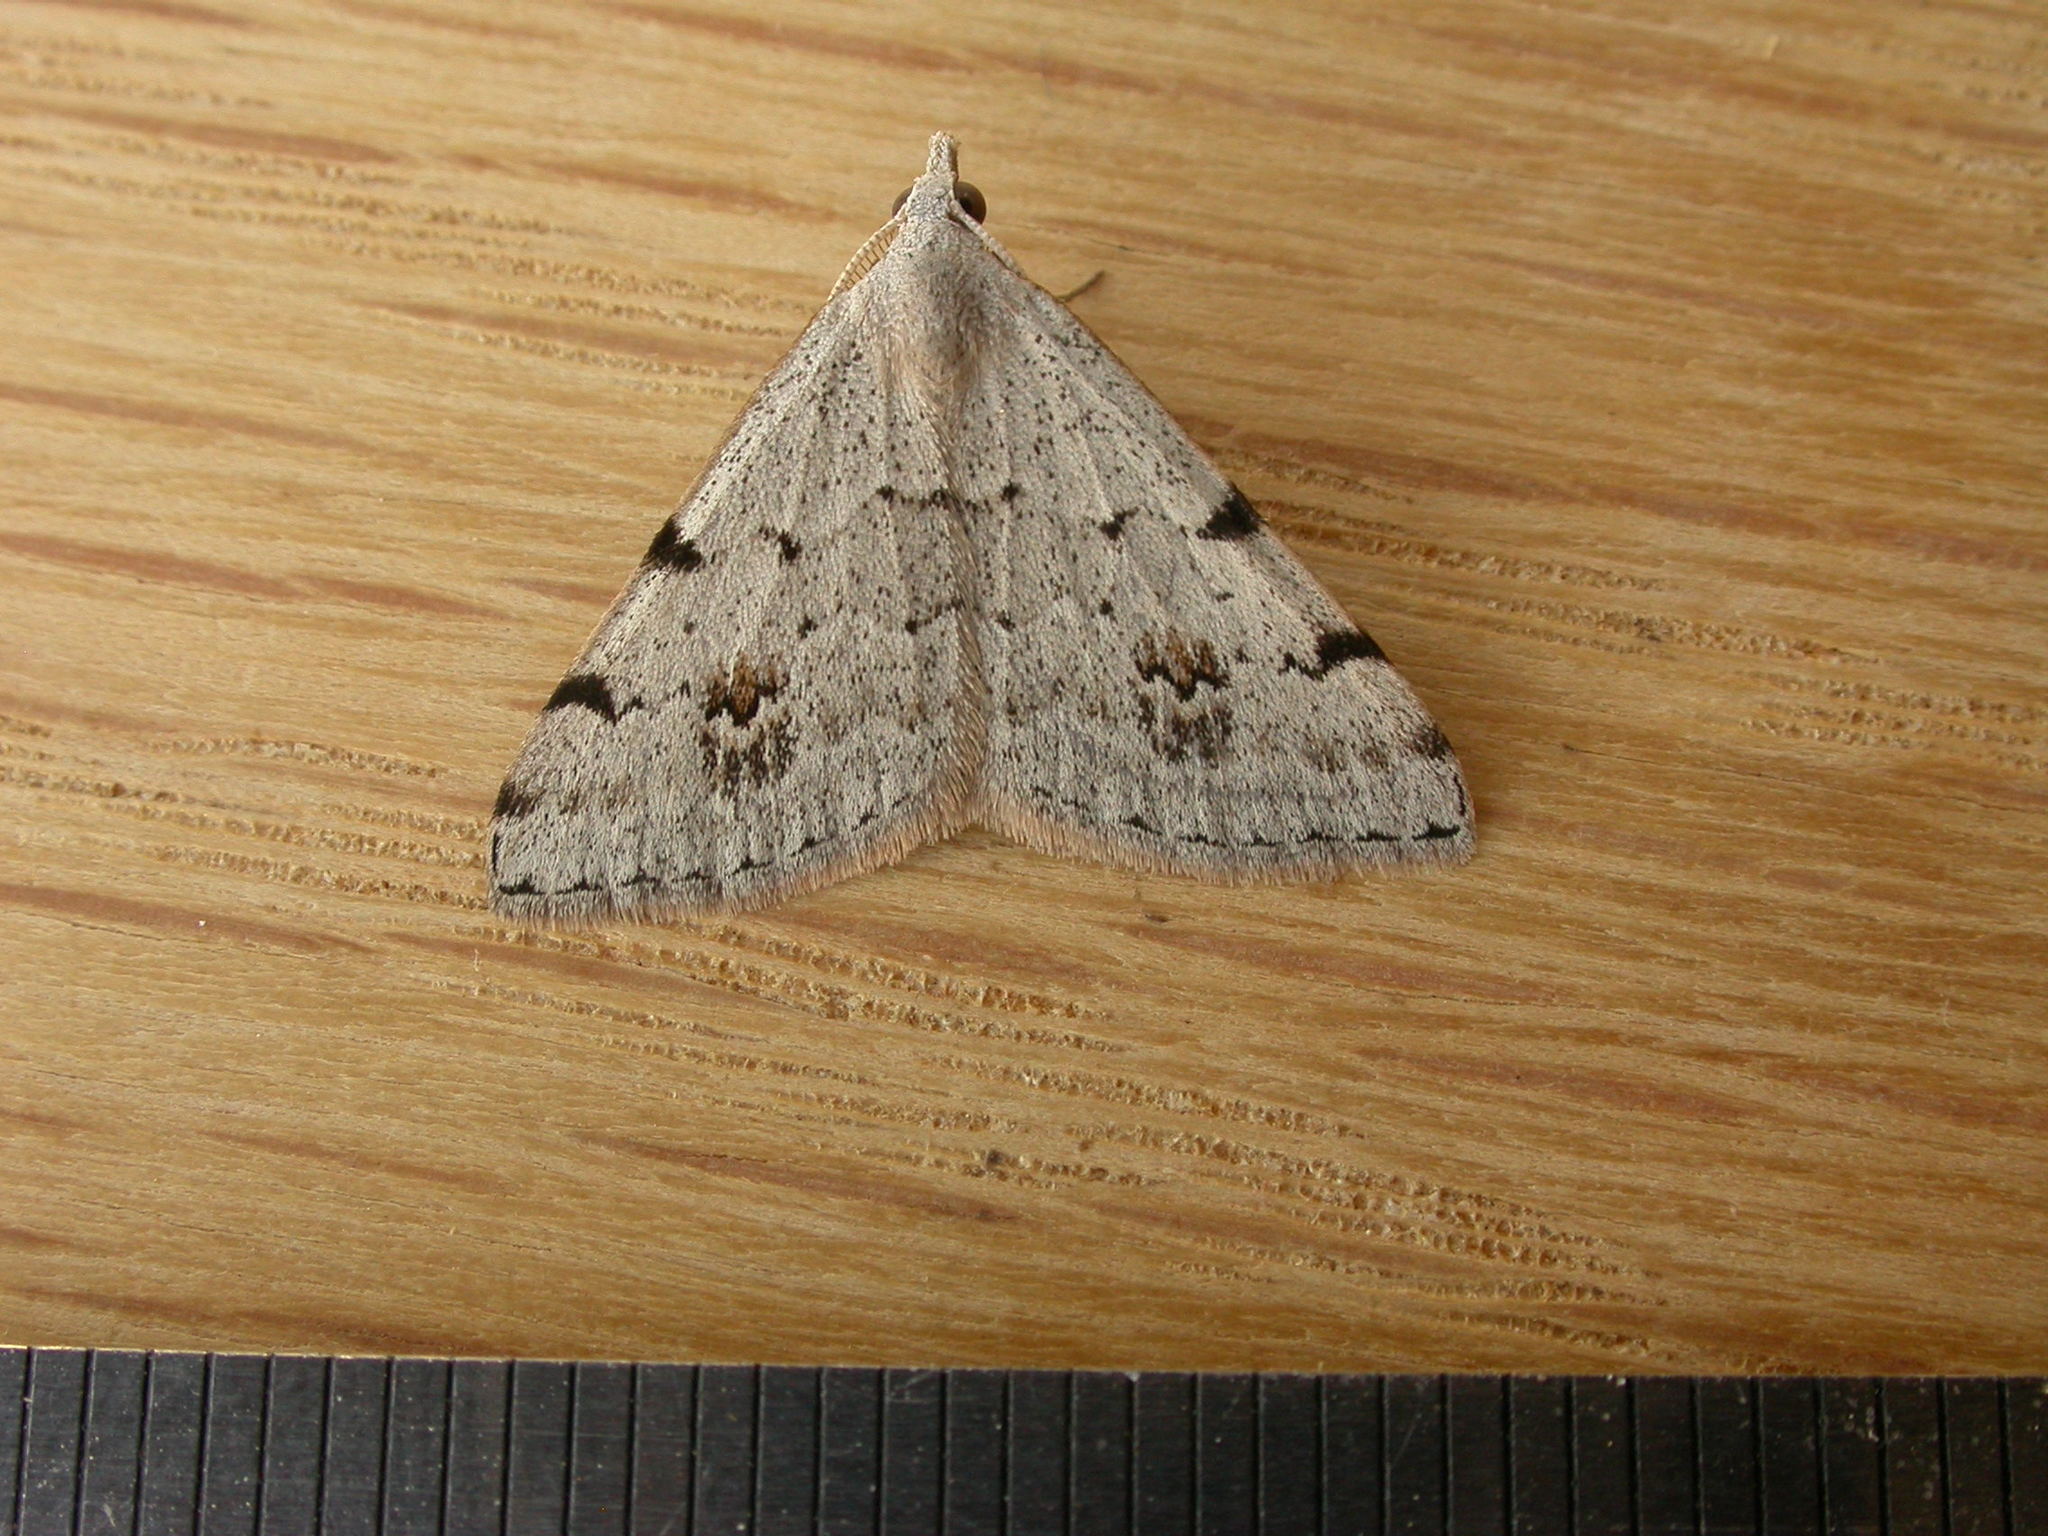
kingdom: Animalia
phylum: Arthropoda
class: Insecta
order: Lepidoptera
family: Geometridae
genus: Dichromodes
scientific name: Dichromodes estigmaria
